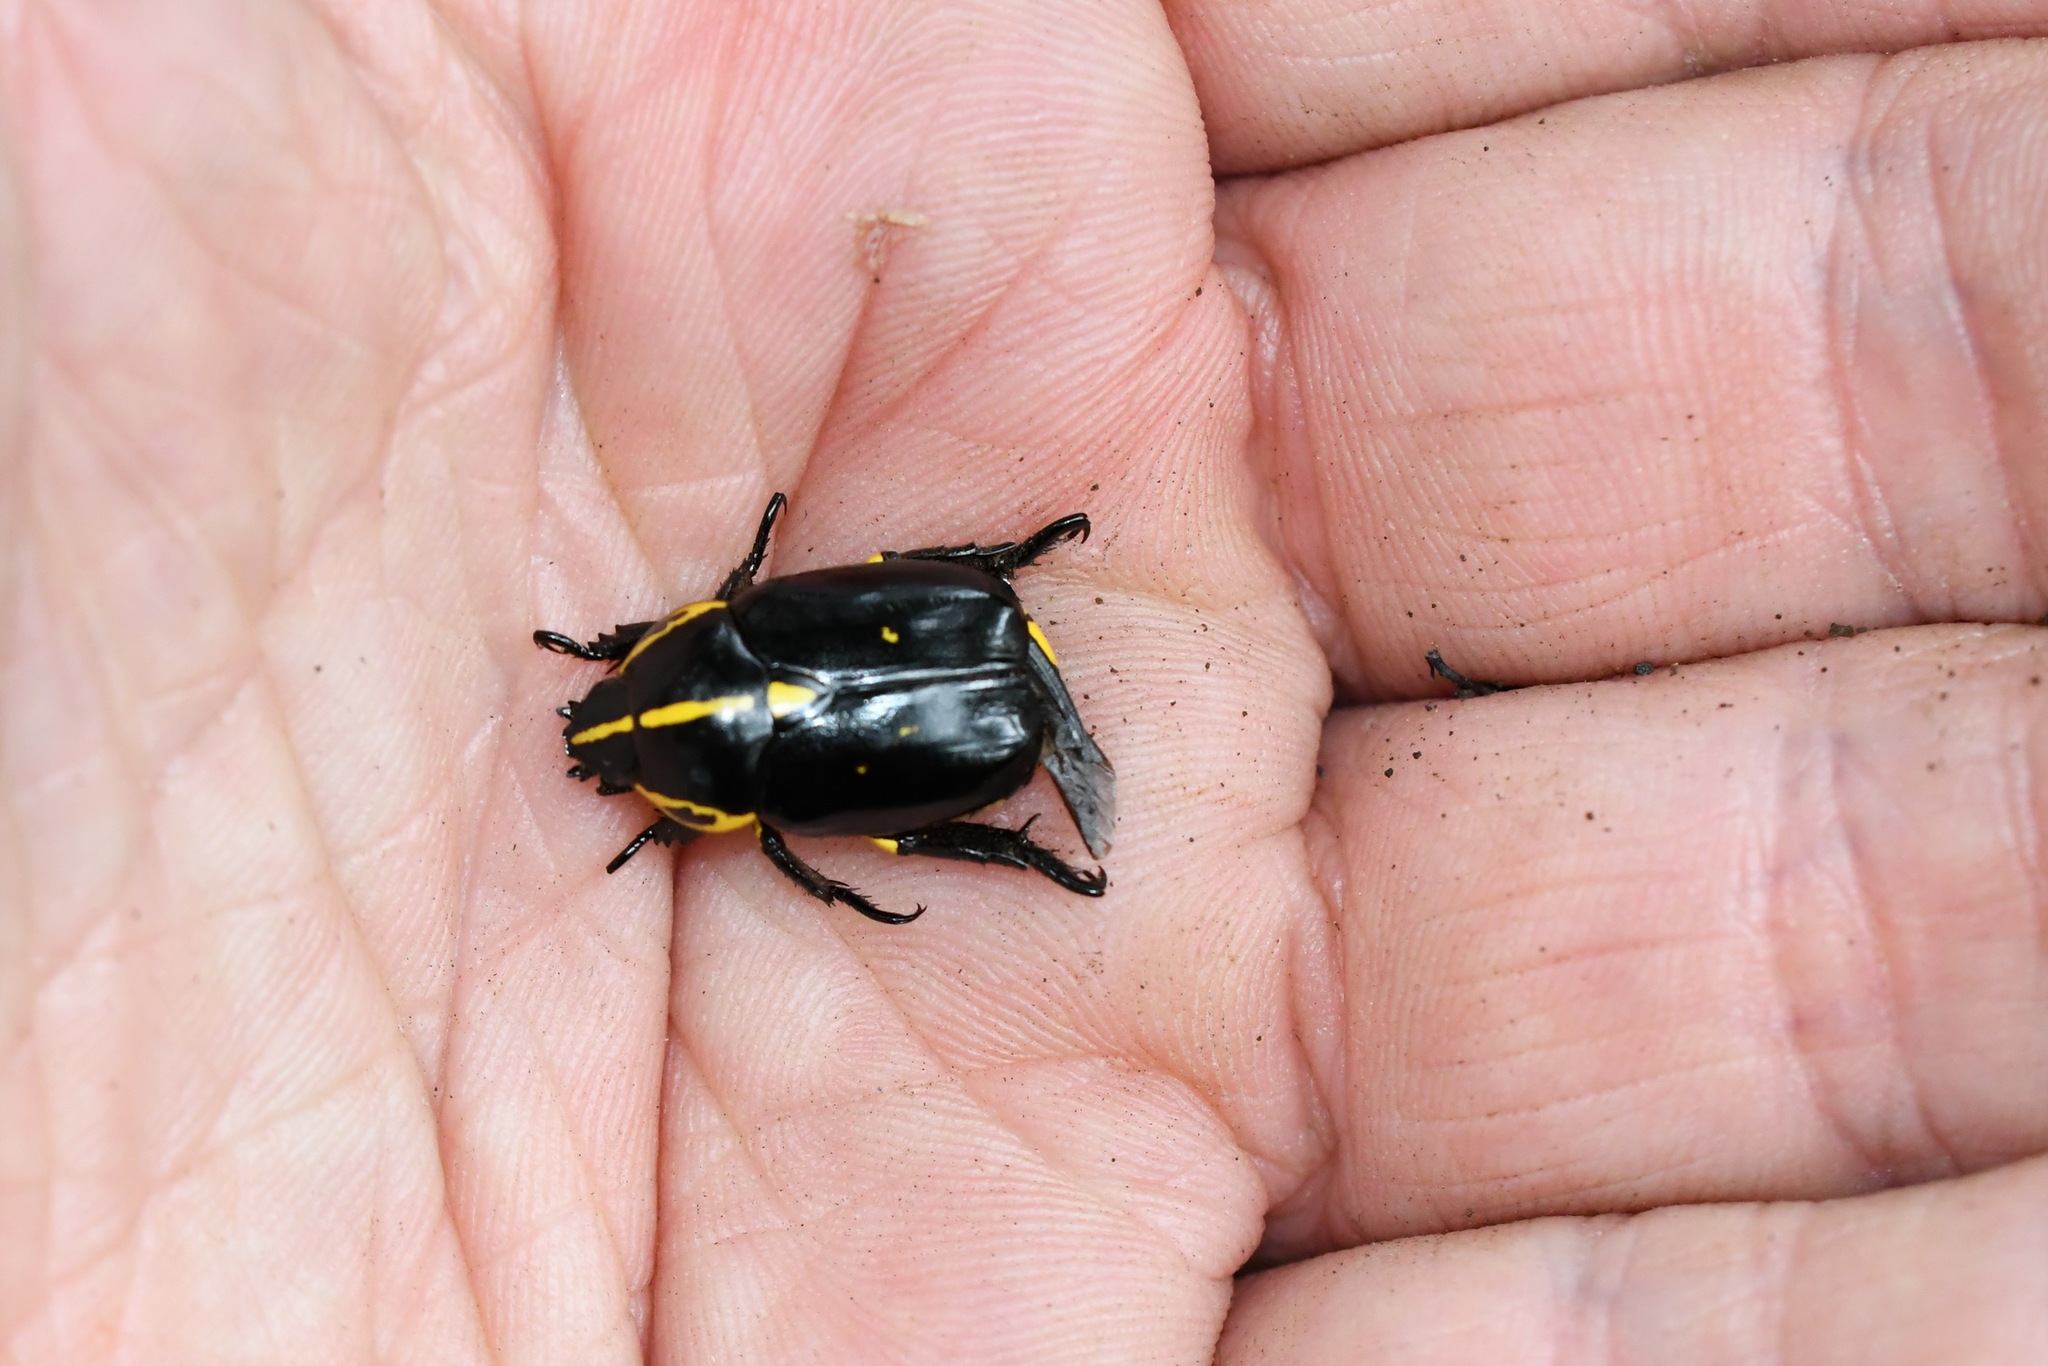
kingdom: Animalia
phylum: Arthropoda
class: Insecta
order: Coleoptera
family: Scarabaeidae
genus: Rutela
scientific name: Rutela lineola
